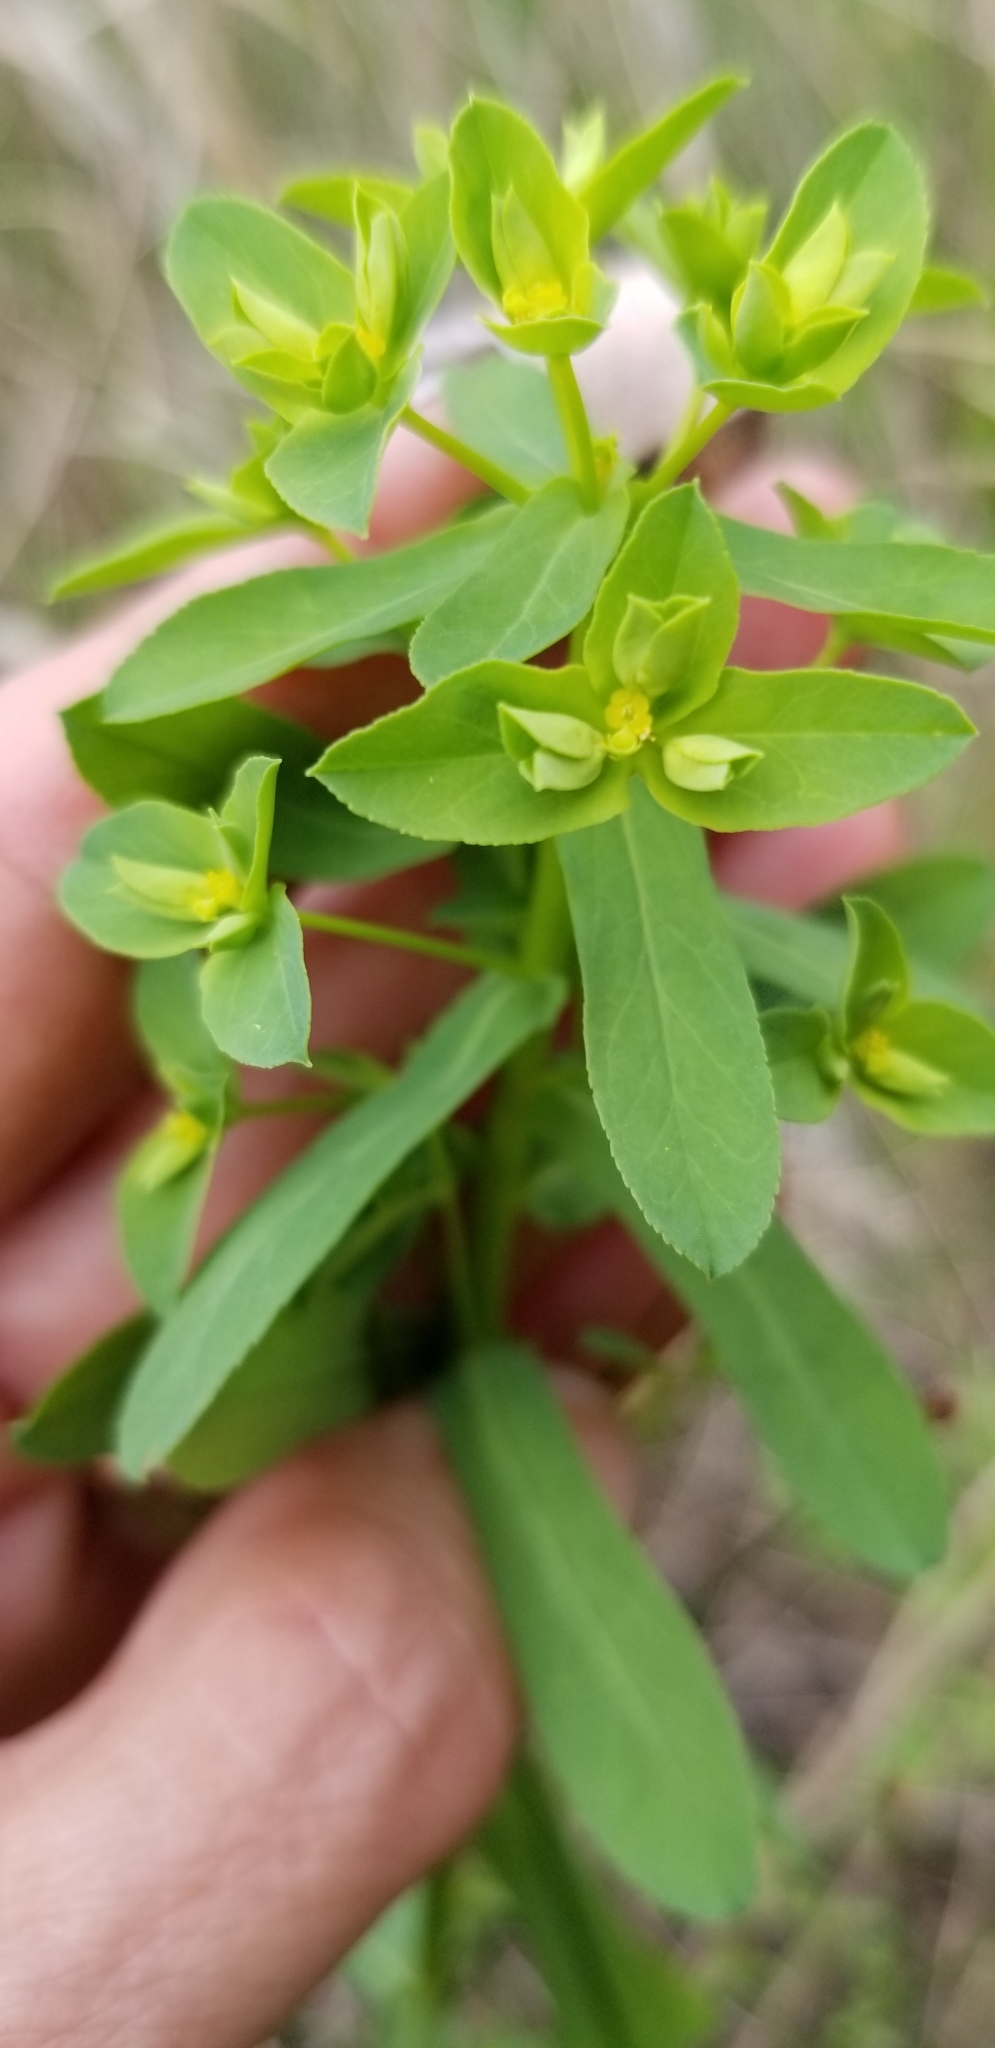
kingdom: Plantae
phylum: Tracheophyta
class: Magnoliopsida
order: Malpighiales
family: Euphorbiaceae
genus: Euphorbia
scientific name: Euphorbia spathulata
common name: Blunt spurge
